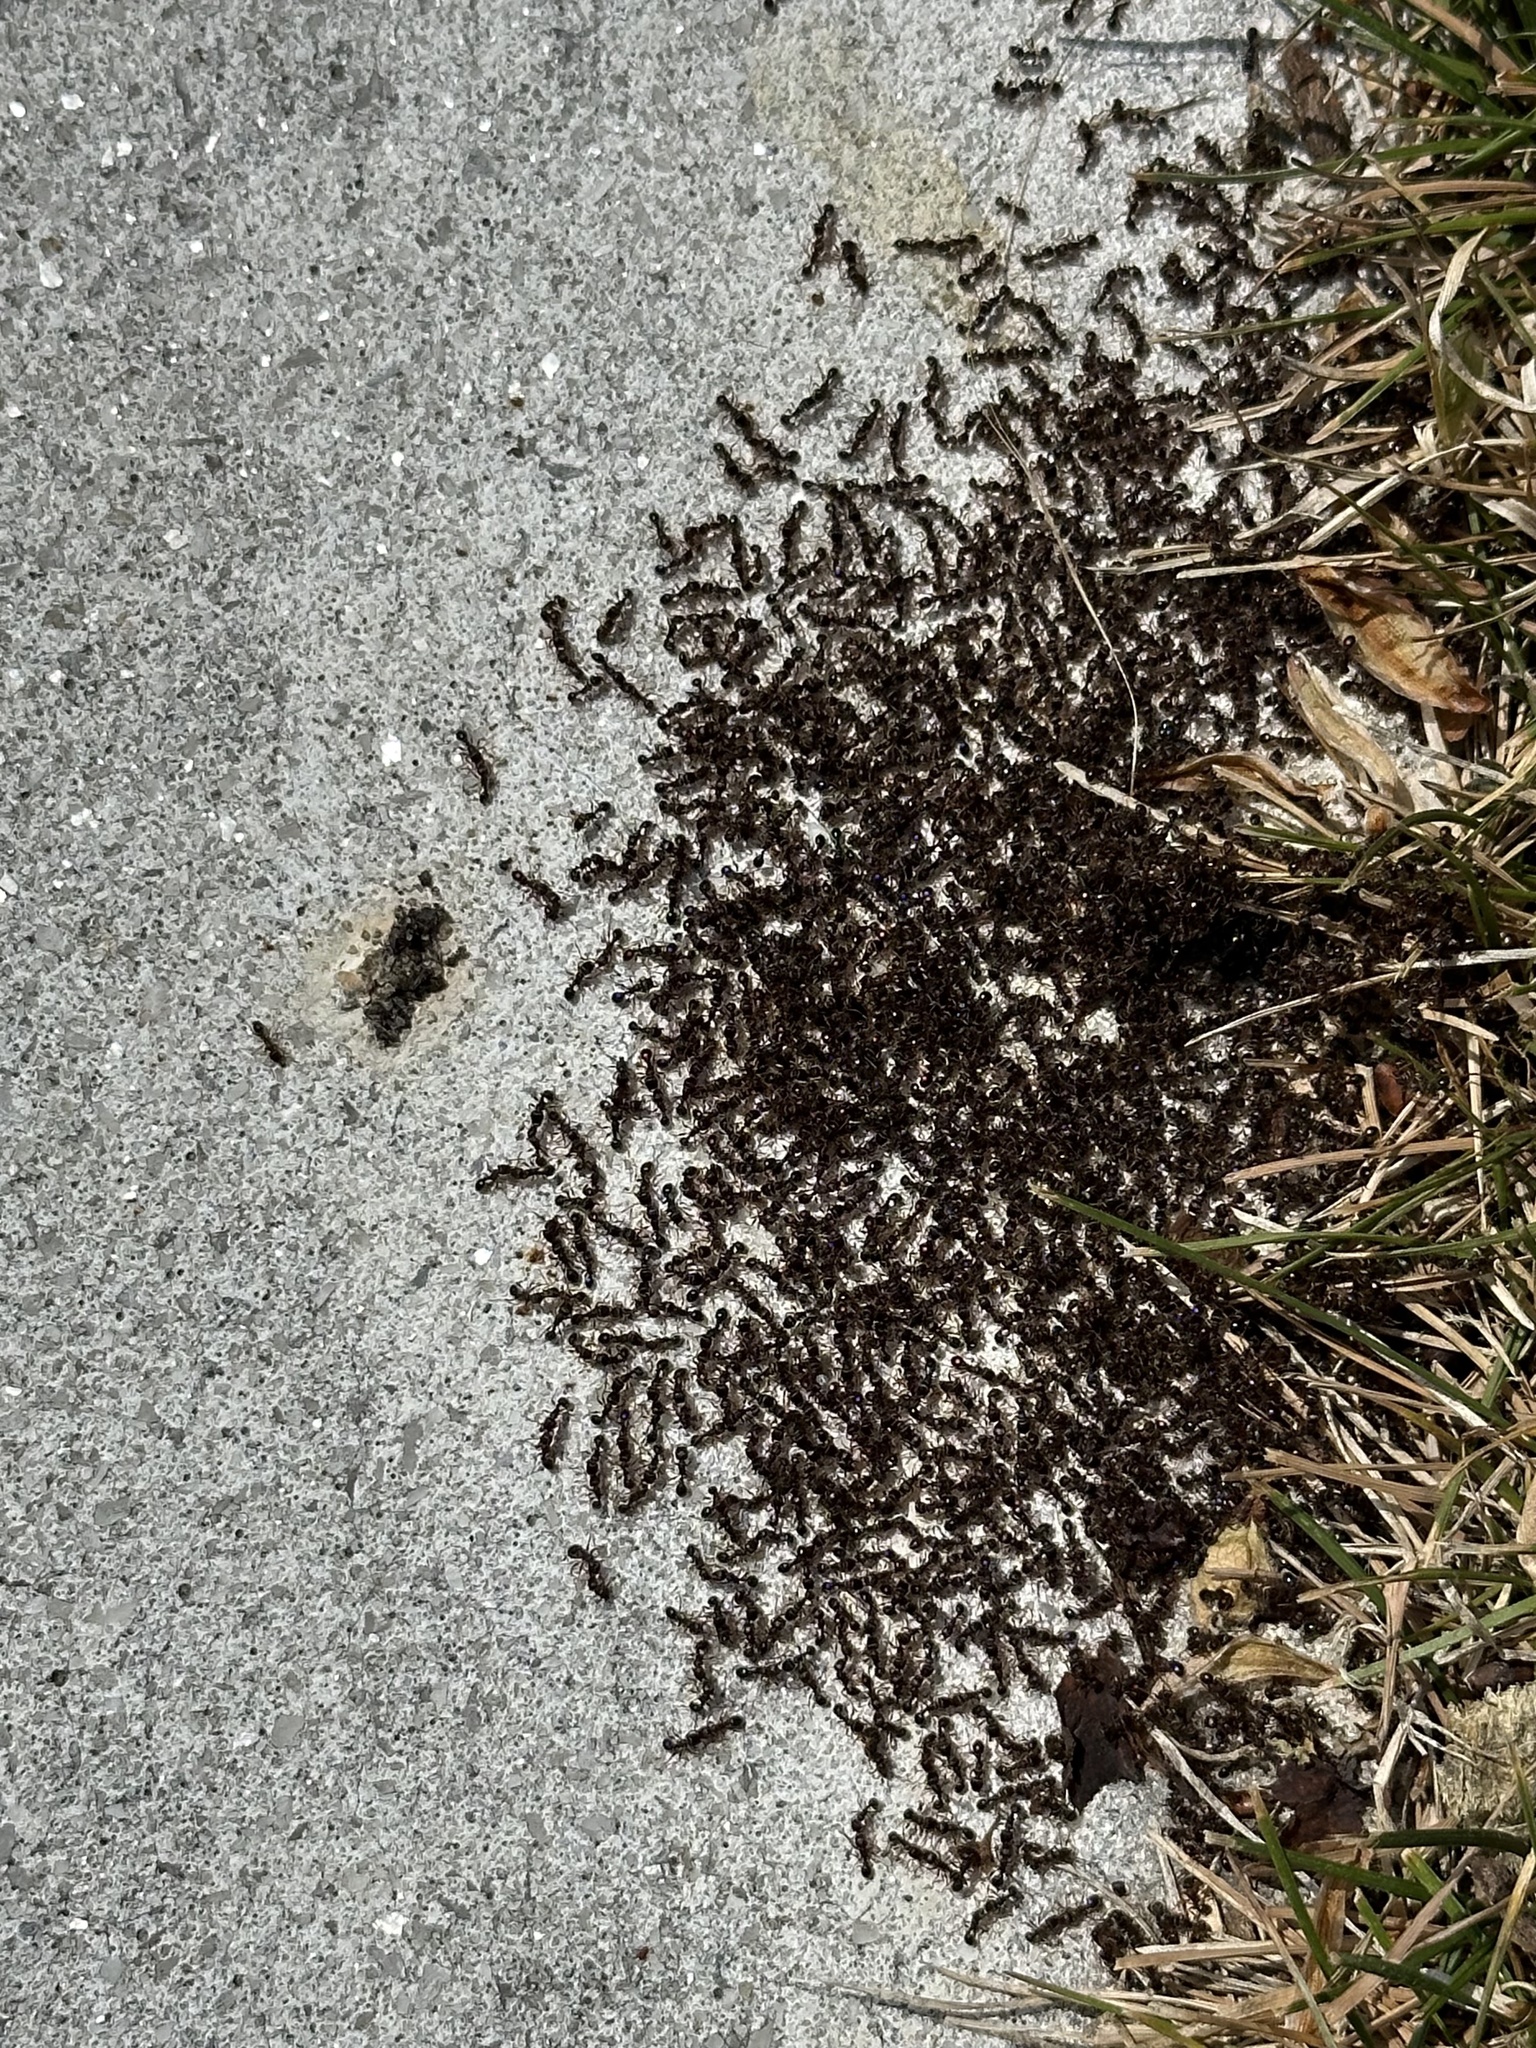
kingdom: Animalia
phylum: Arthropoda
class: Insecta
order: Hymenoptera
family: Formicidae
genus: Tetramorium
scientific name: Tetramorium immigrans
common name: Pavement ant
